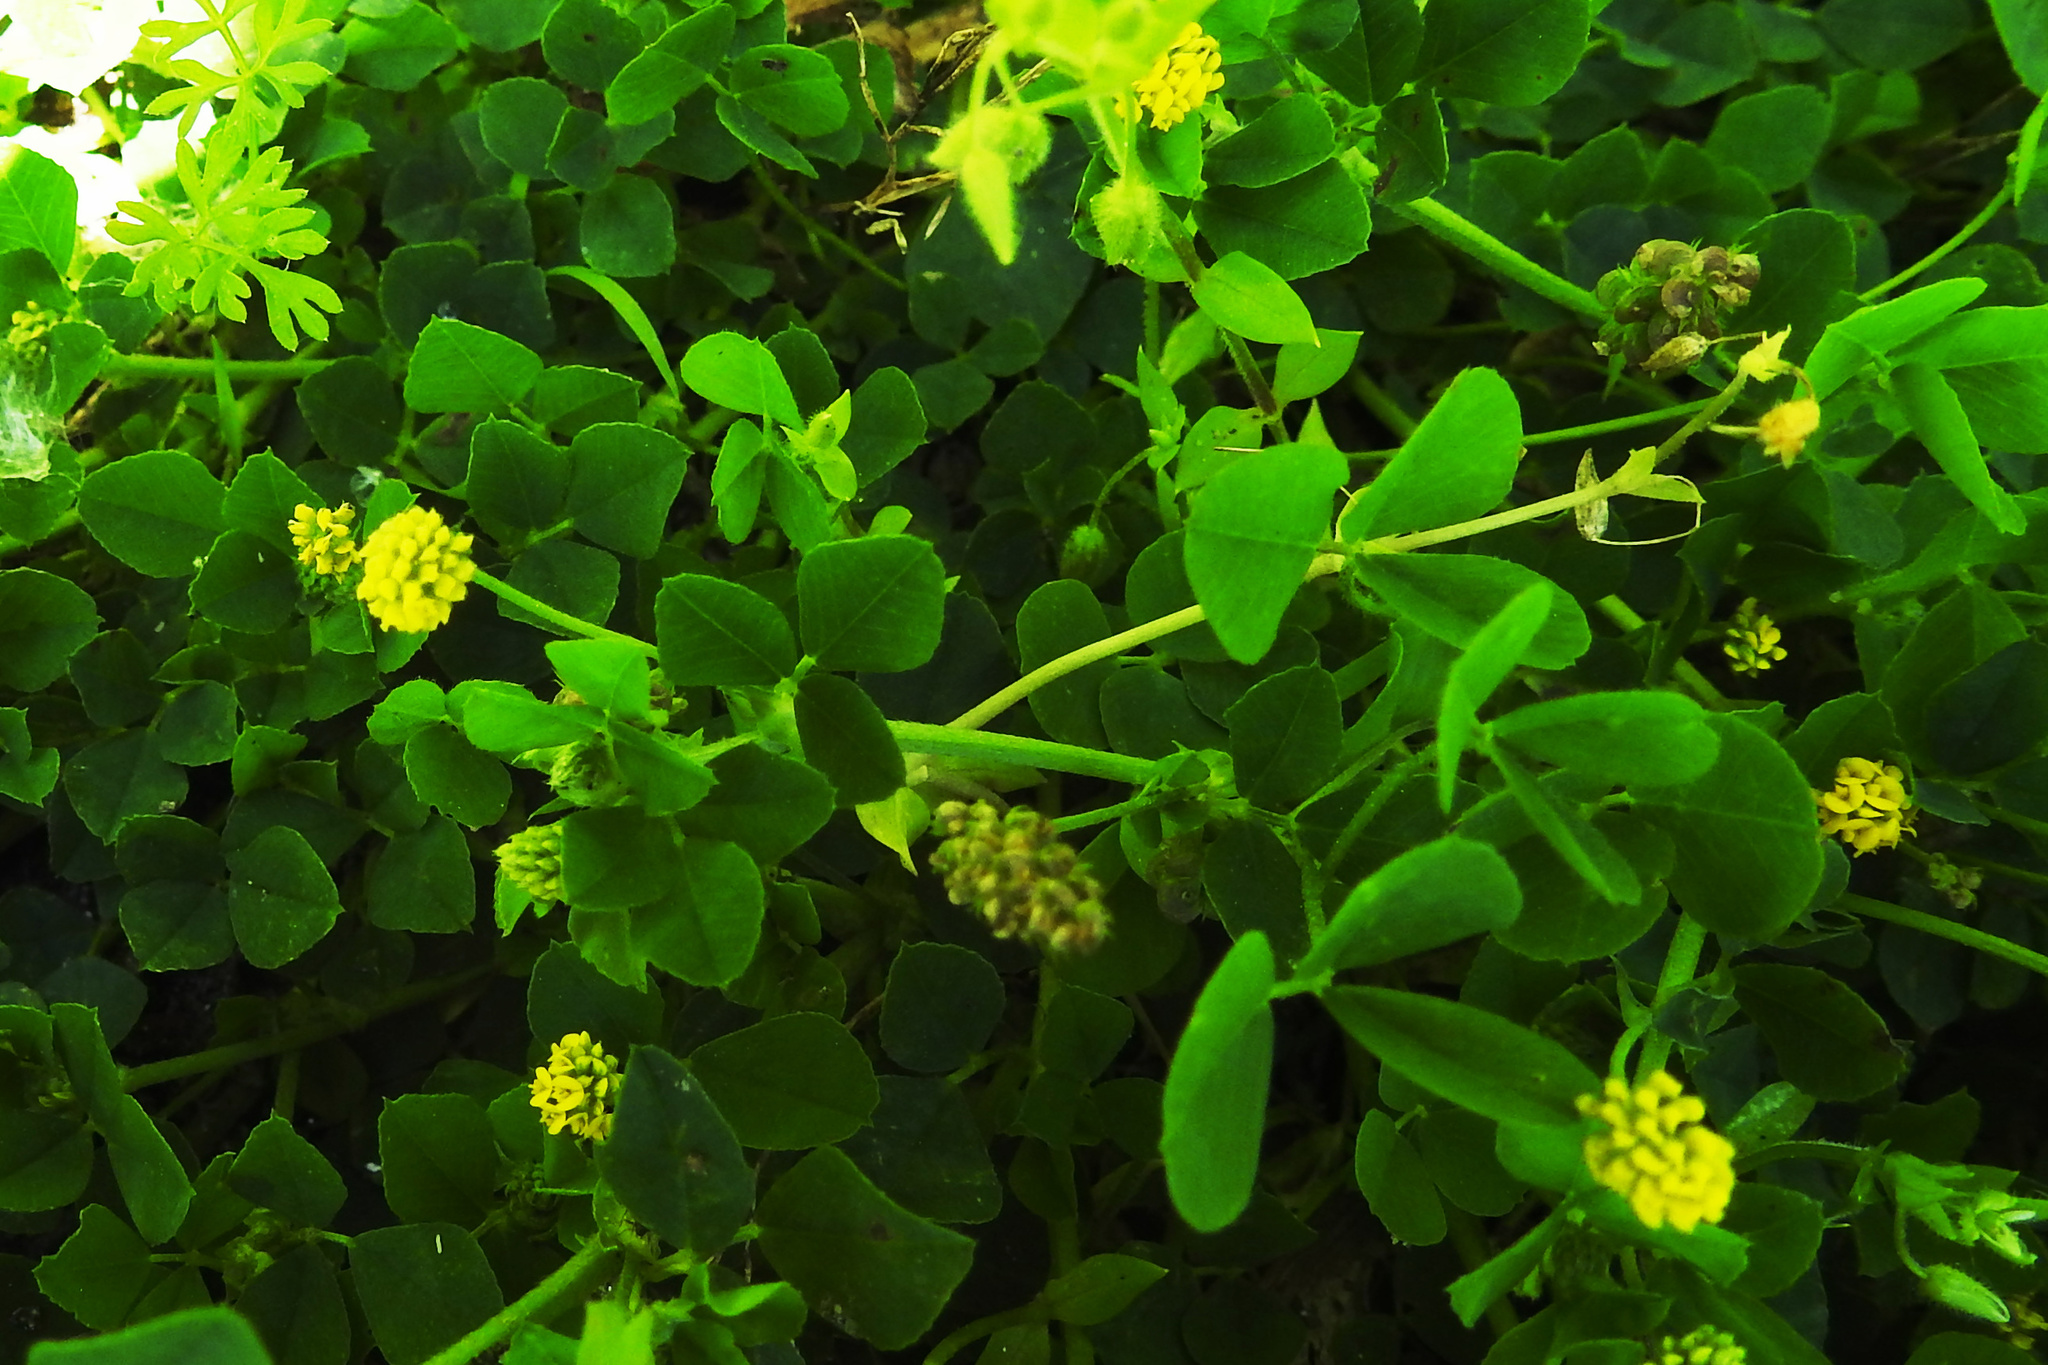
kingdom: Plantae
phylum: Tracheophyta
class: Magnoliopsida
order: Fabales
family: Fabaceae
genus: Medicago
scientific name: Medicago lupulina
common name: Black medick
